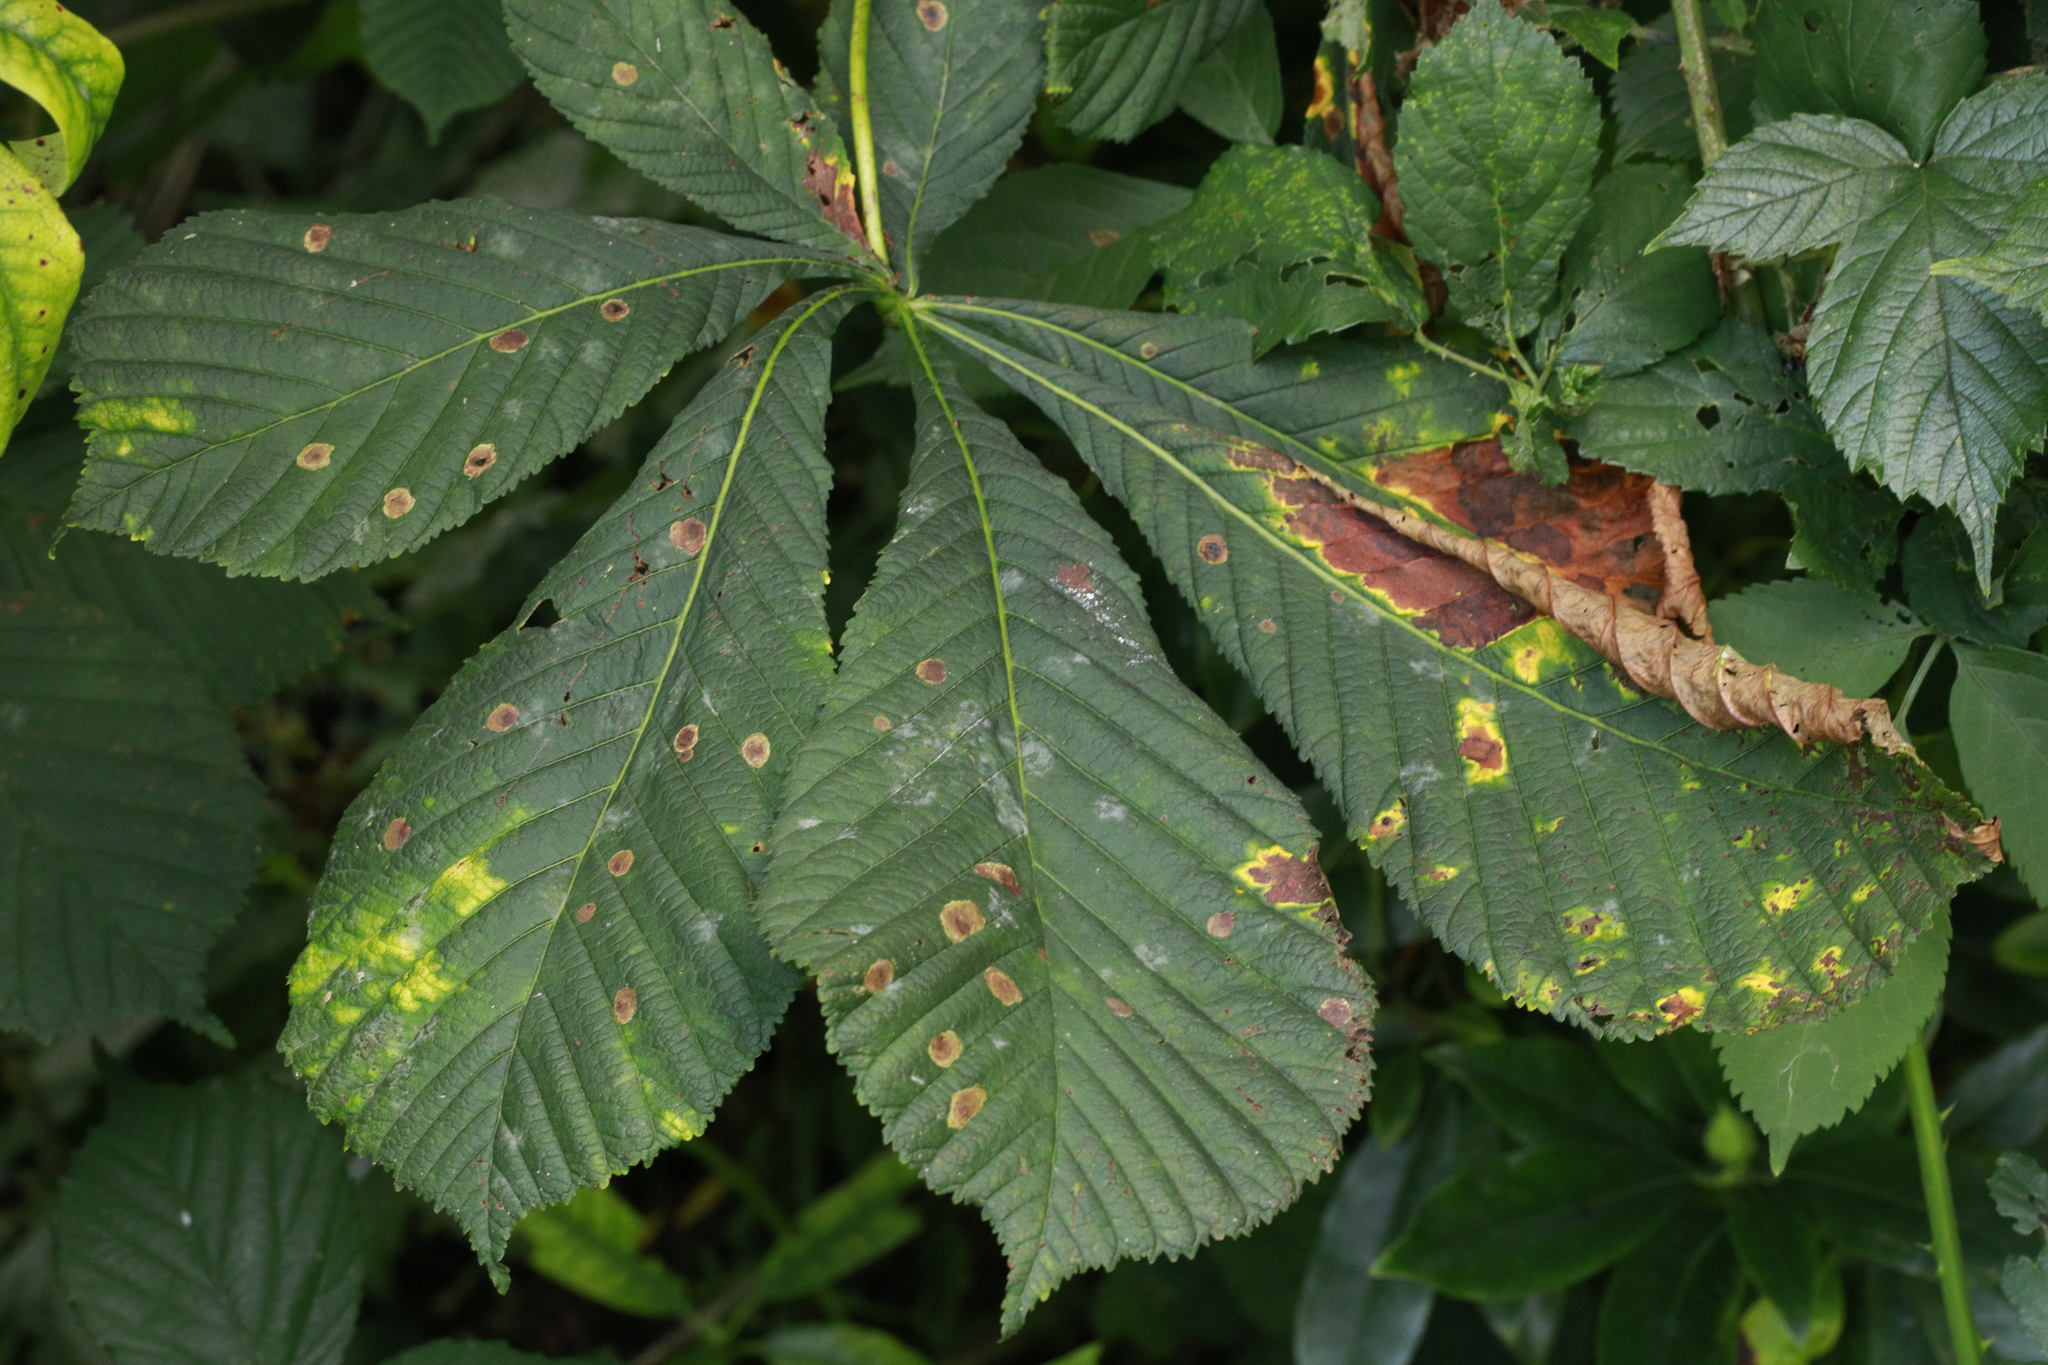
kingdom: Plantae
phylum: Tracheophyta
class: Magnoliopsida
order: Sapindales
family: Sapindaceae
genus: Aesculus
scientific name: Aesculus hippocastanum
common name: Horse-chestnut
